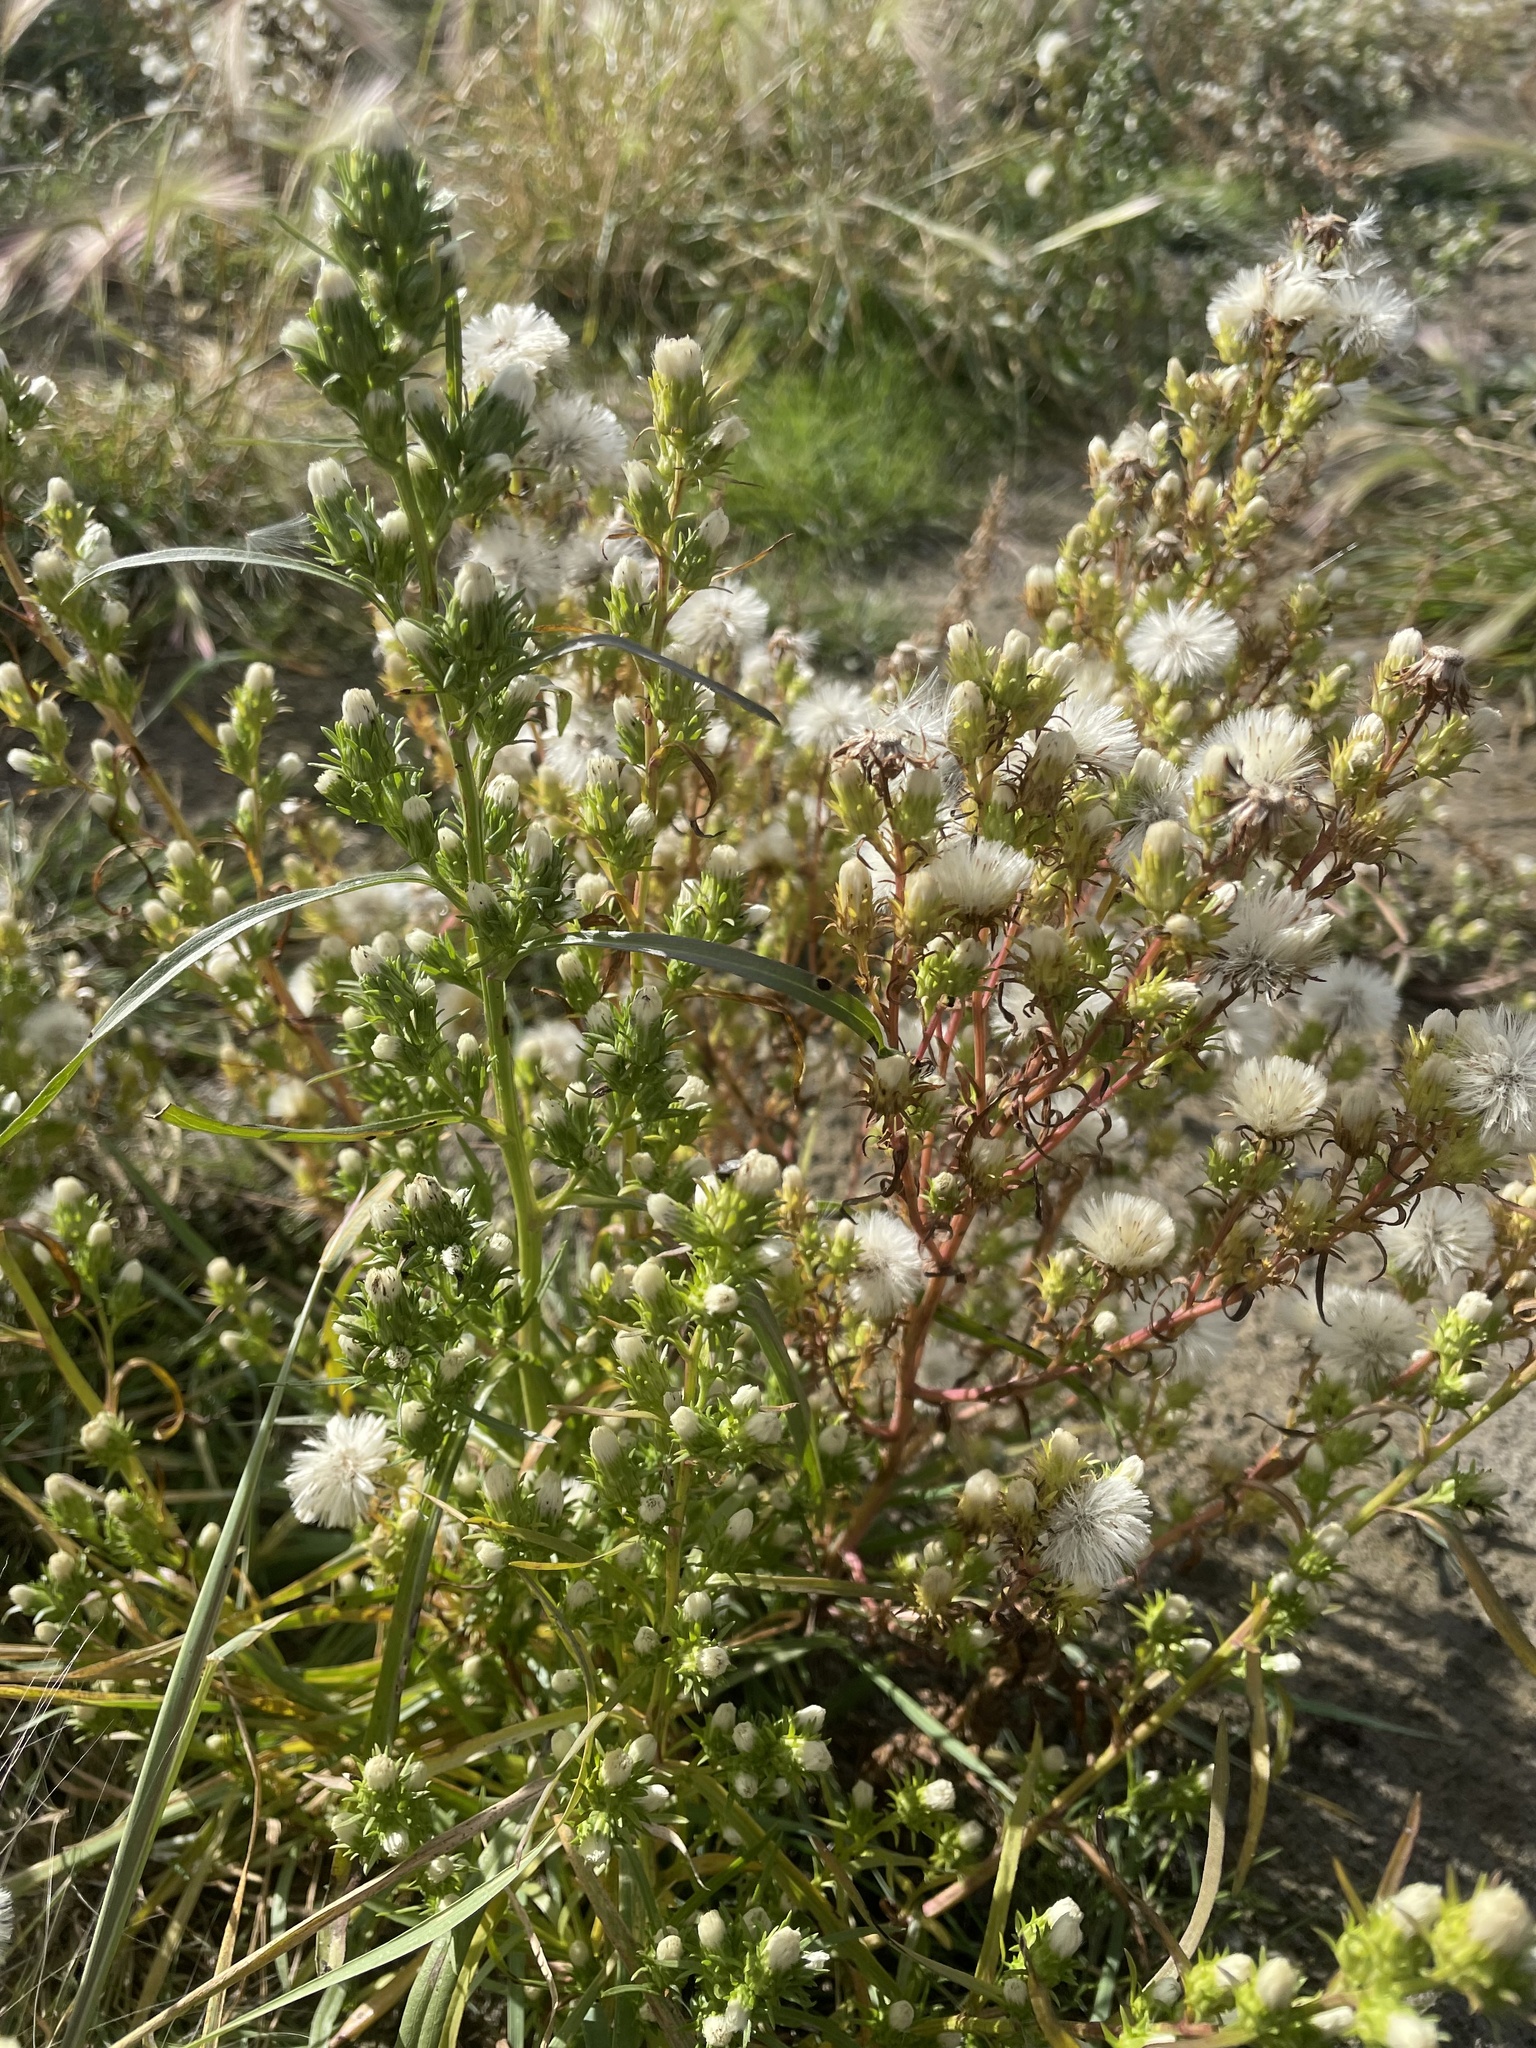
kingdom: Plantae
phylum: Tracheophyta
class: Magnoliopsida
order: Asterales
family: Asteraceae
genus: Symphyotrichum
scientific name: Symphyotrichum ciliatum
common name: Rayless annual aster
